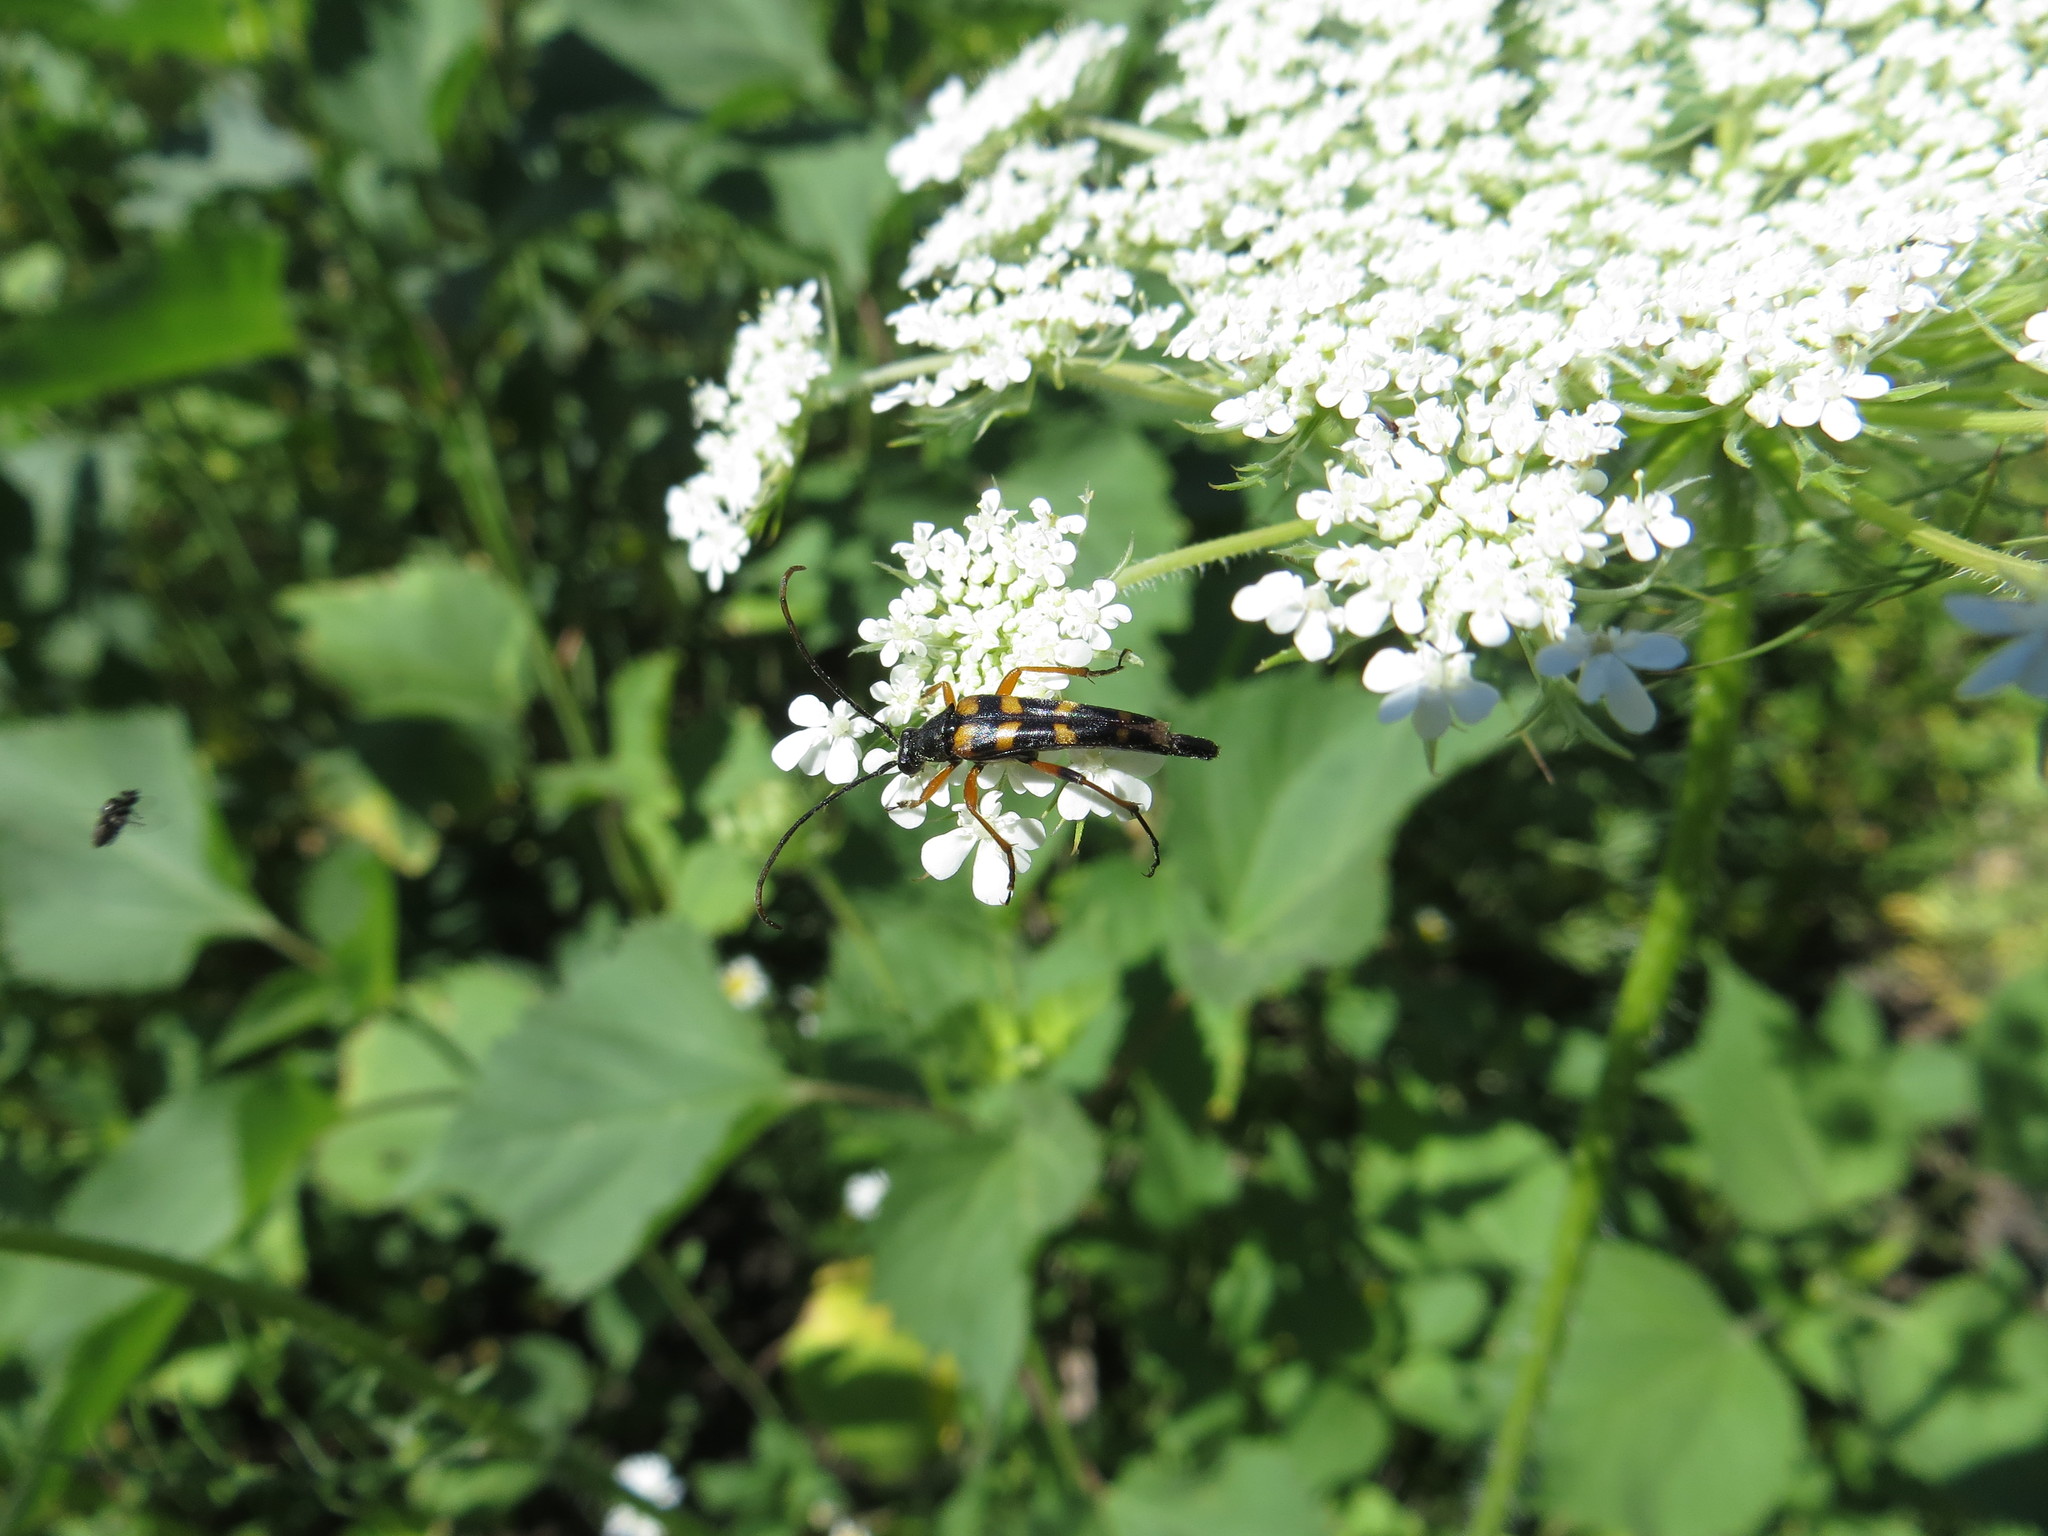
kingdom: Animalia
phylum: Arthropoda
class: Insecta
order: Coleoptera
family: Cerambycidae
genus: Strangalia
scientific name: Strangalia attenuata
